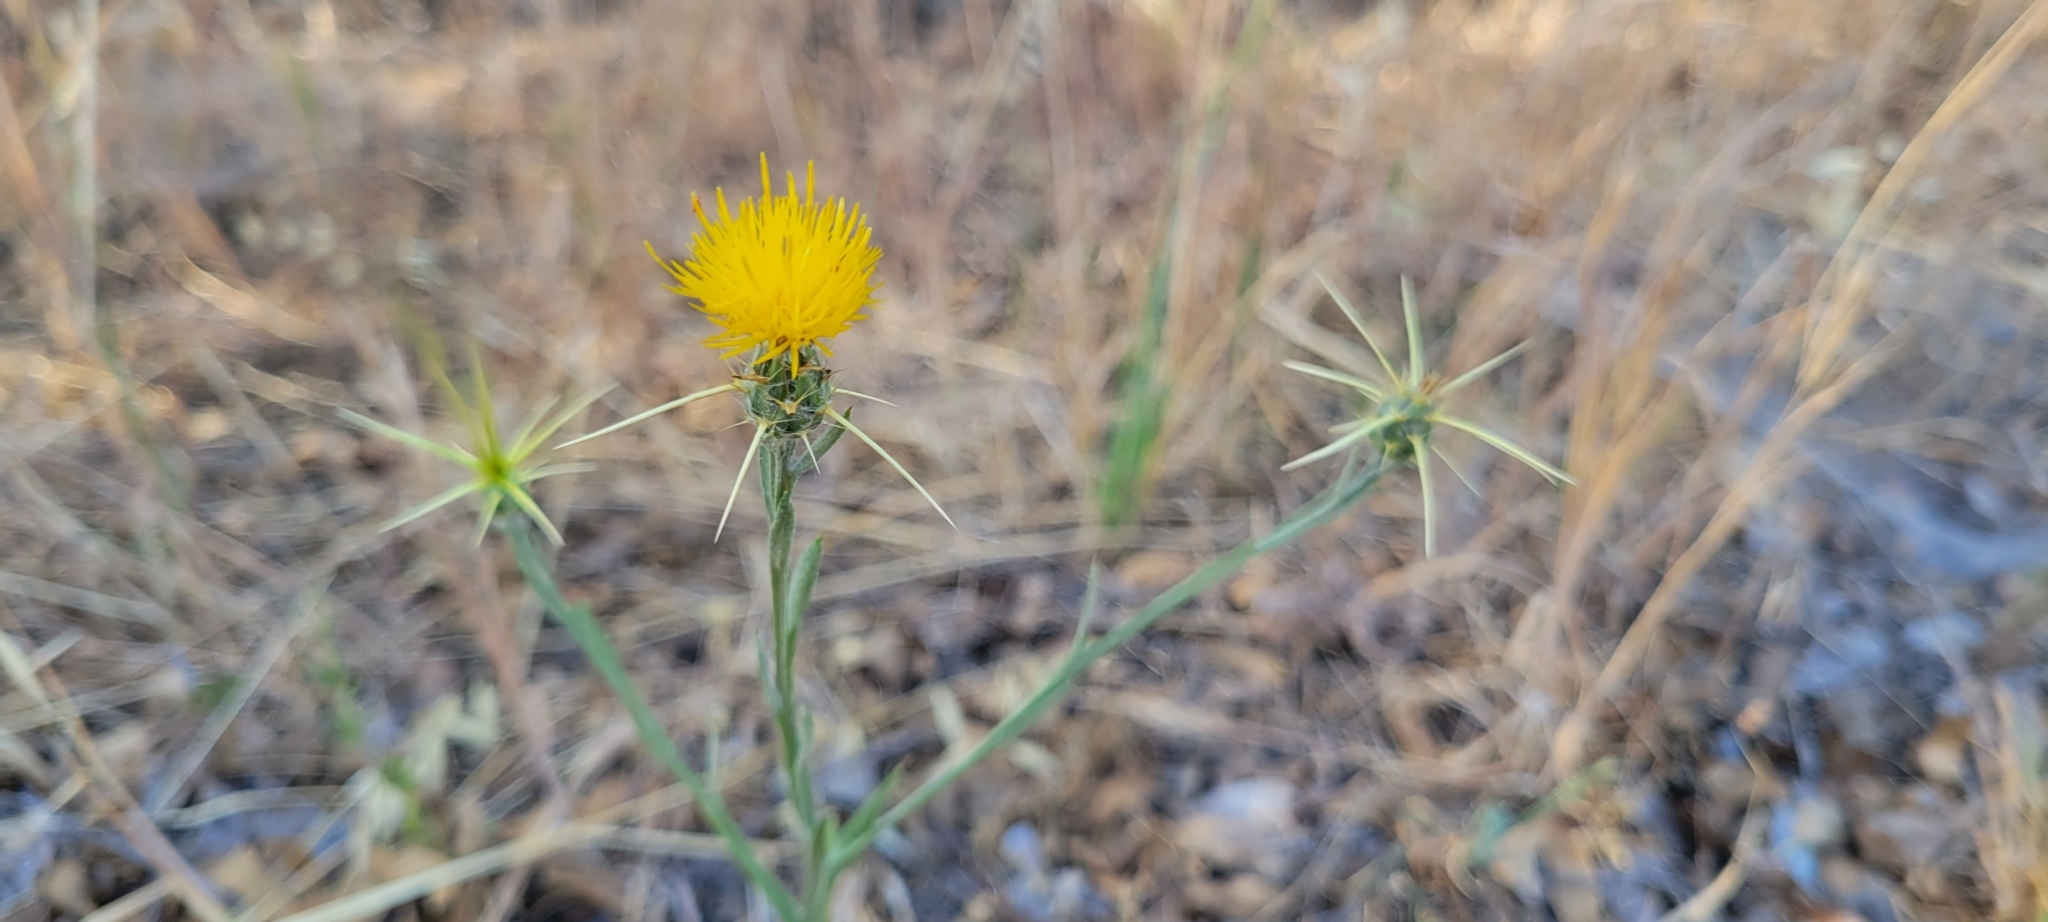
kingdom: Plantae
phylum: Tracheophyta
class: Magnoliopsida
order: Asterales
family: Asteraceae
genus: Centaurea
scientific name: Centaurea solstitialis
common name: Yellow star-thistle
